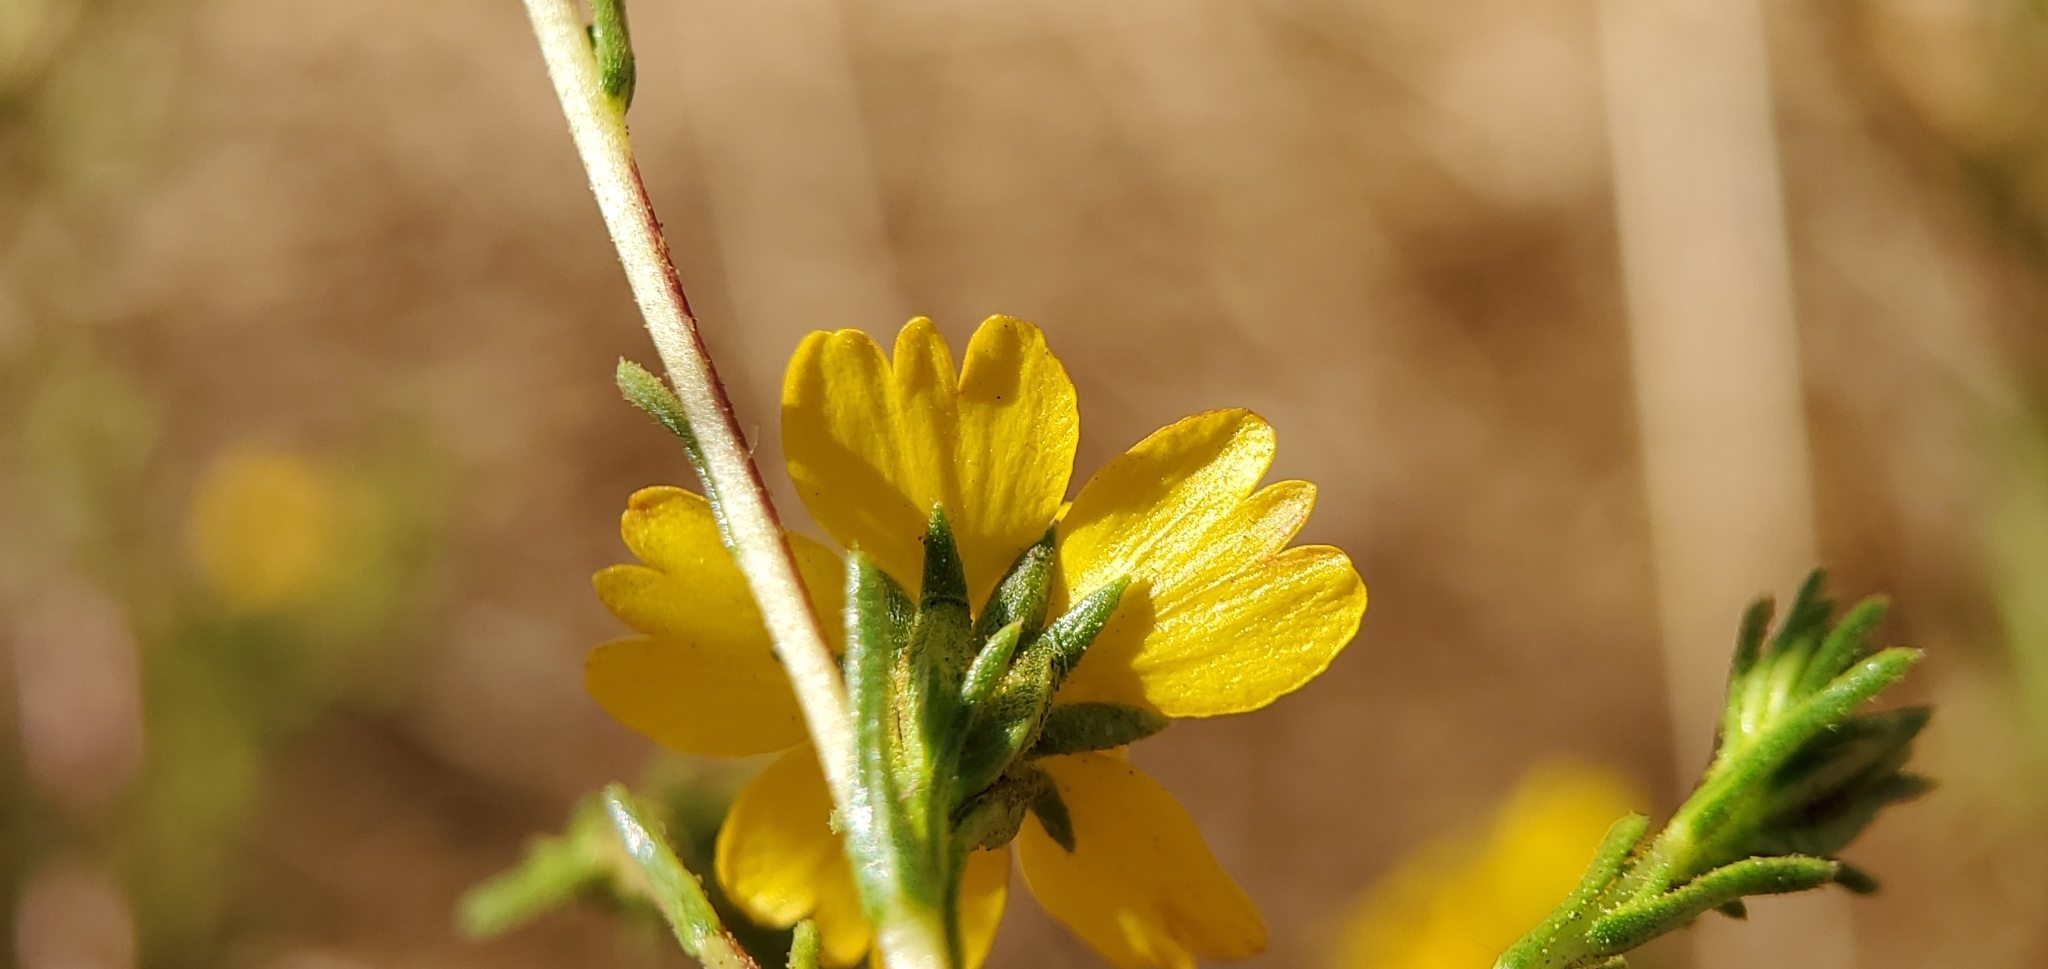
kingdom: Plantae
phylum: Tracheophyta
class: Magnoliopsida
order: Asterales
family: Asteraceae
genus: Deinandra
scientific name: Deinandra fasciculata
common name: Clustered tarweed
